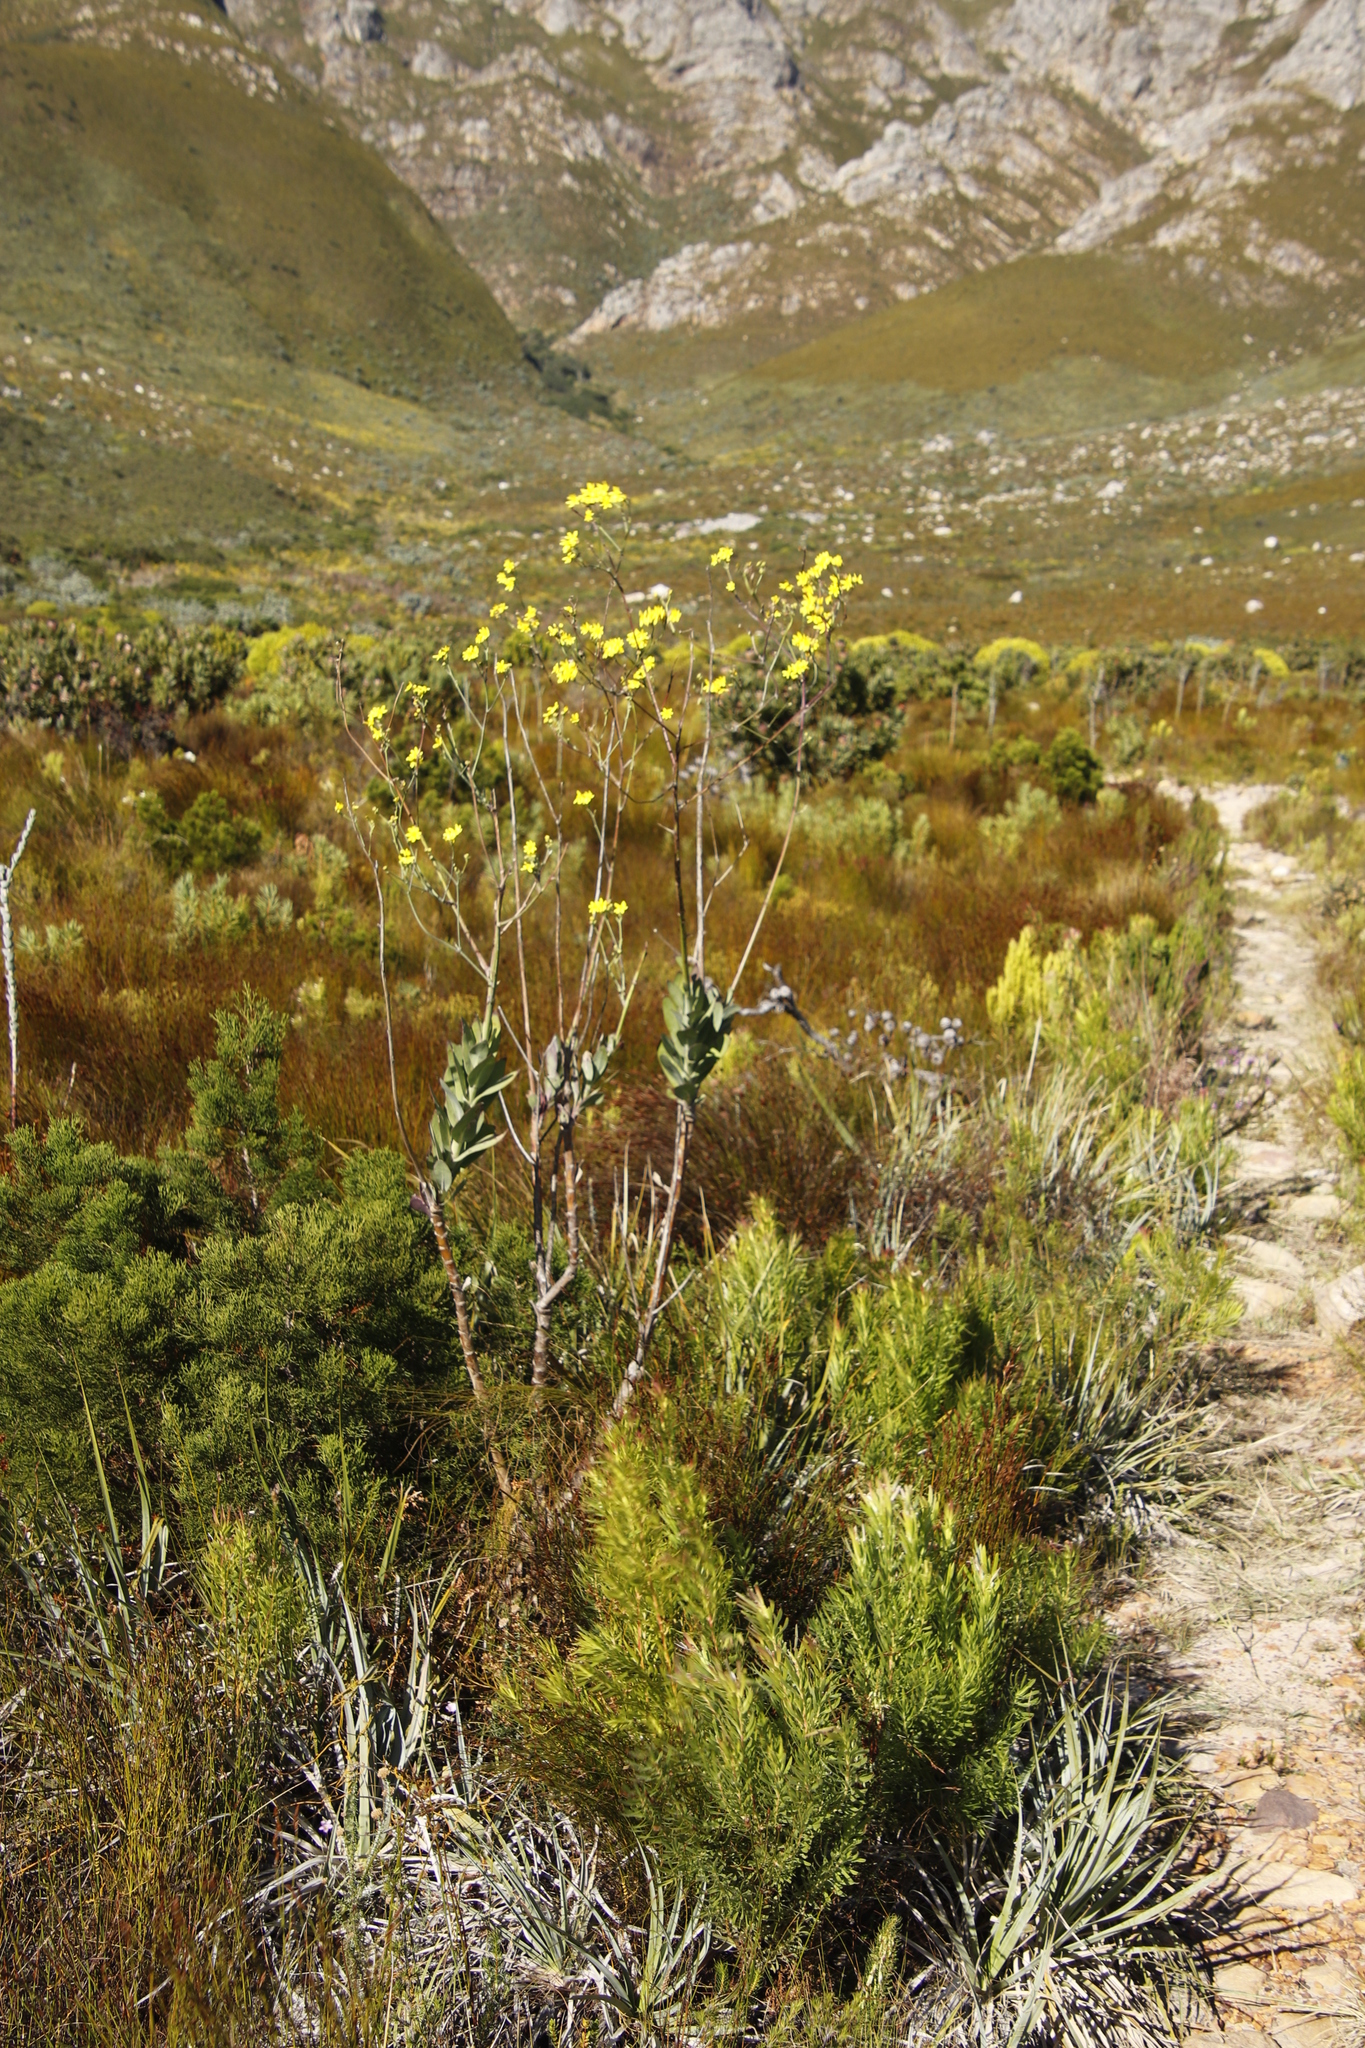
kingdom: Plantae
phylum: Tracheophyta
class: Magnoliopsida
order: Asterales
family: Asteraceae
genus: Othonna
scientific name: Othonna quinquedentata
